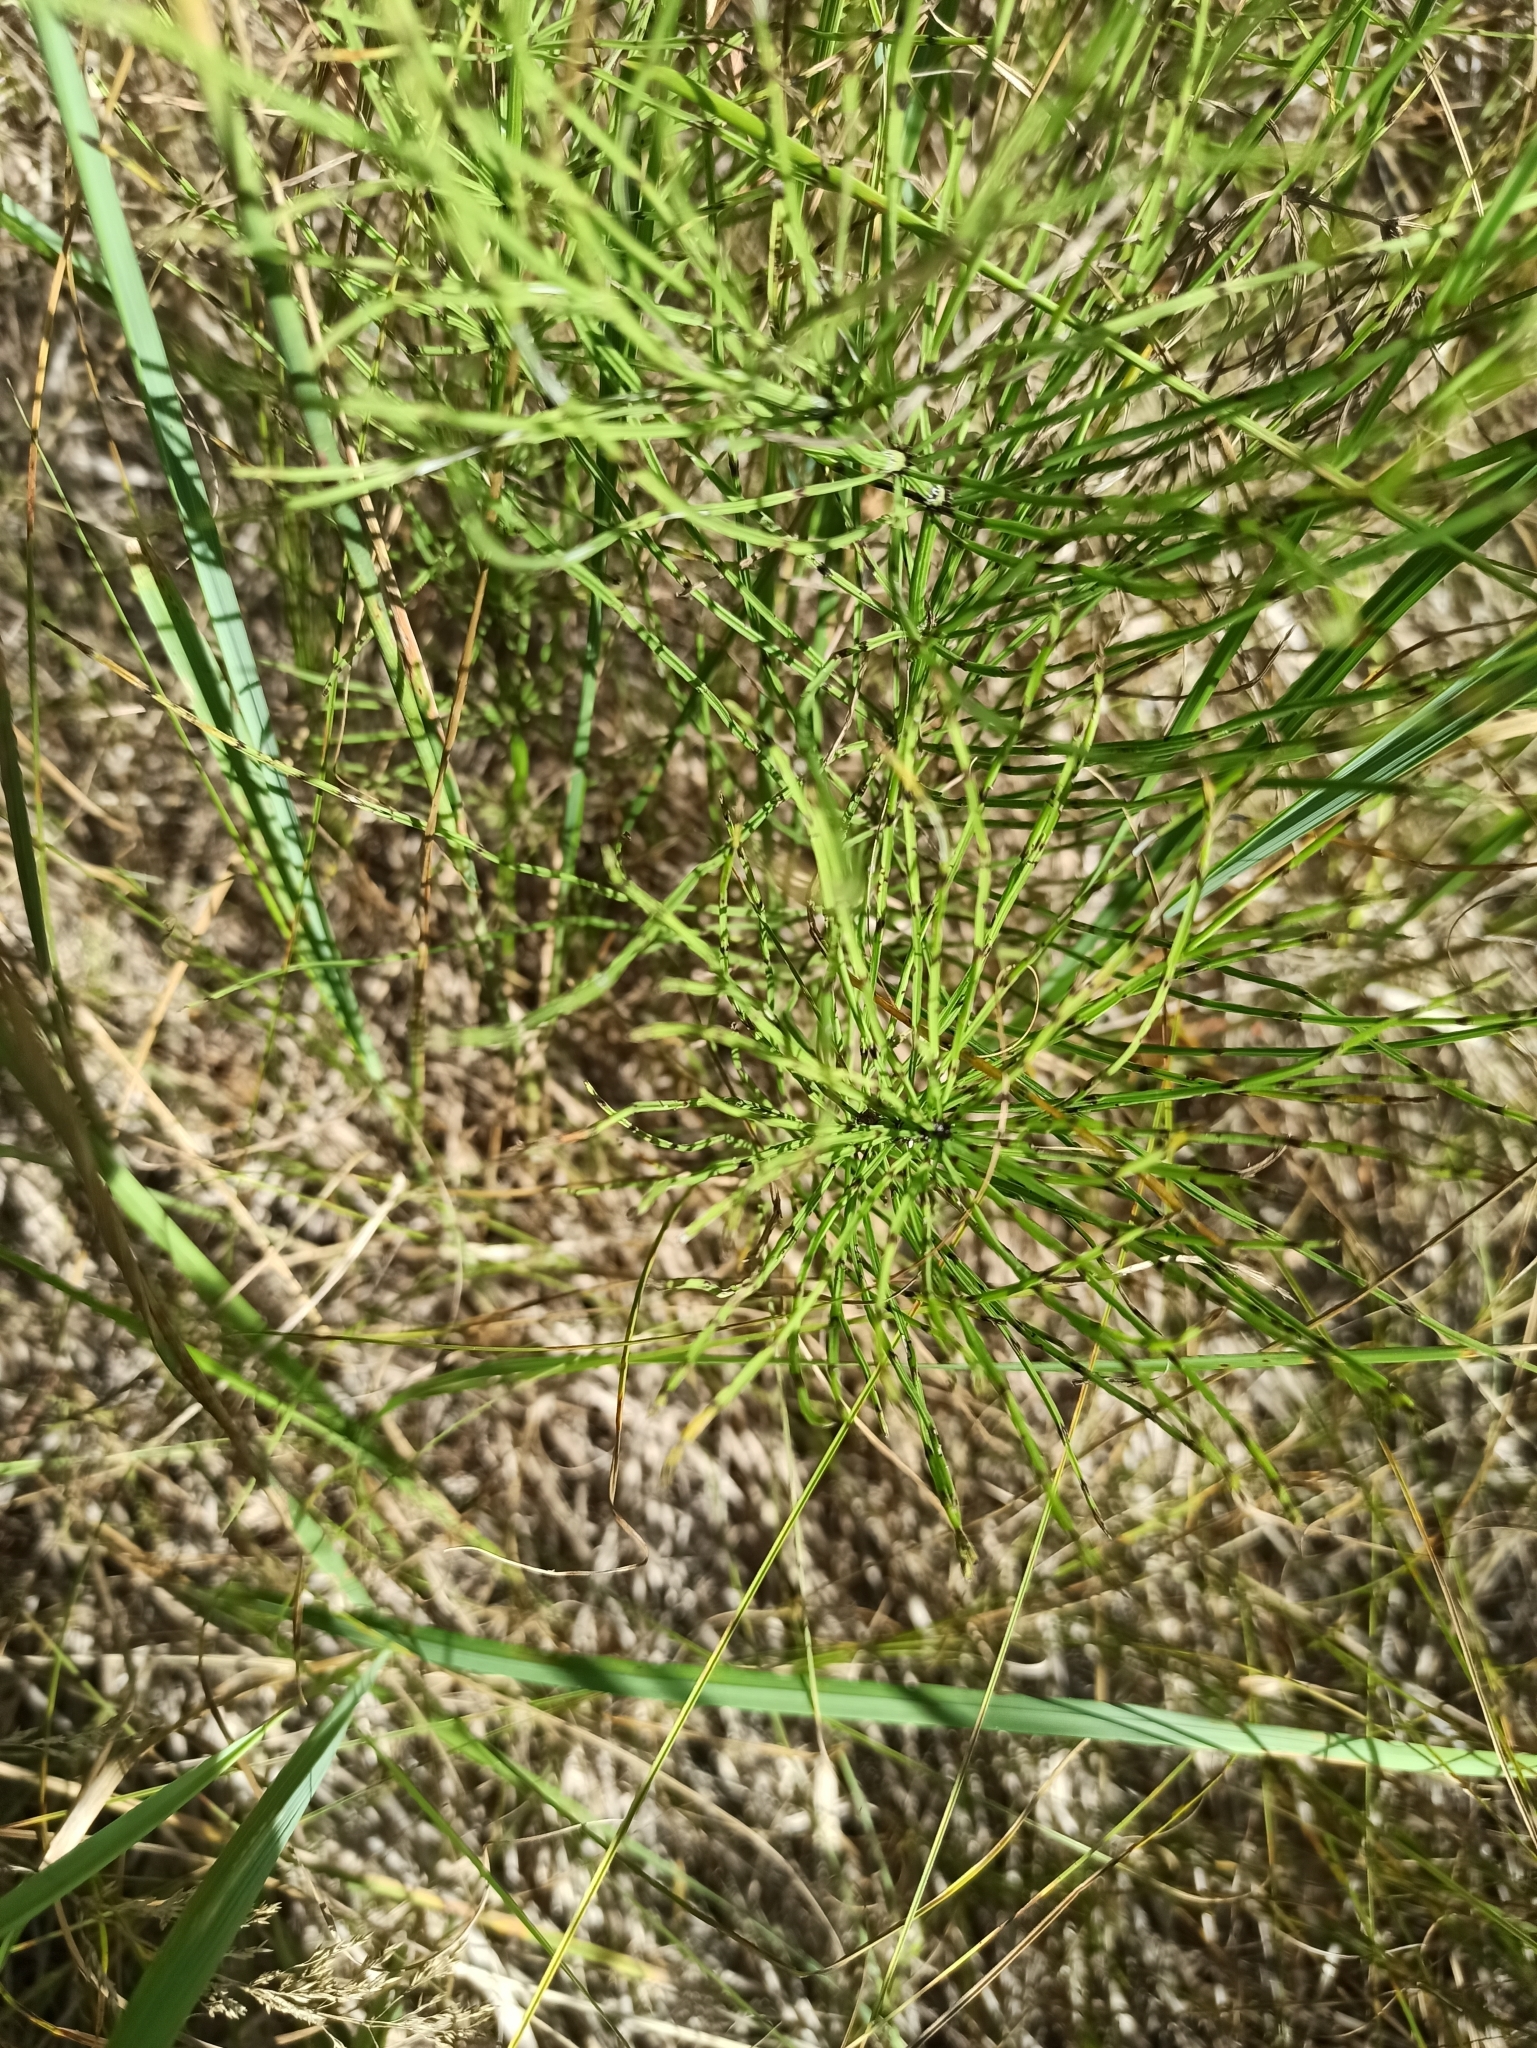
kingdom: Plantae
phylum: Tracheophyta
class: Polypodiopsida
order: Equisetales
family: Equisetaceae
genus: Equisetum
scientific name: Equisetum arvense
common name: Field horsetail
